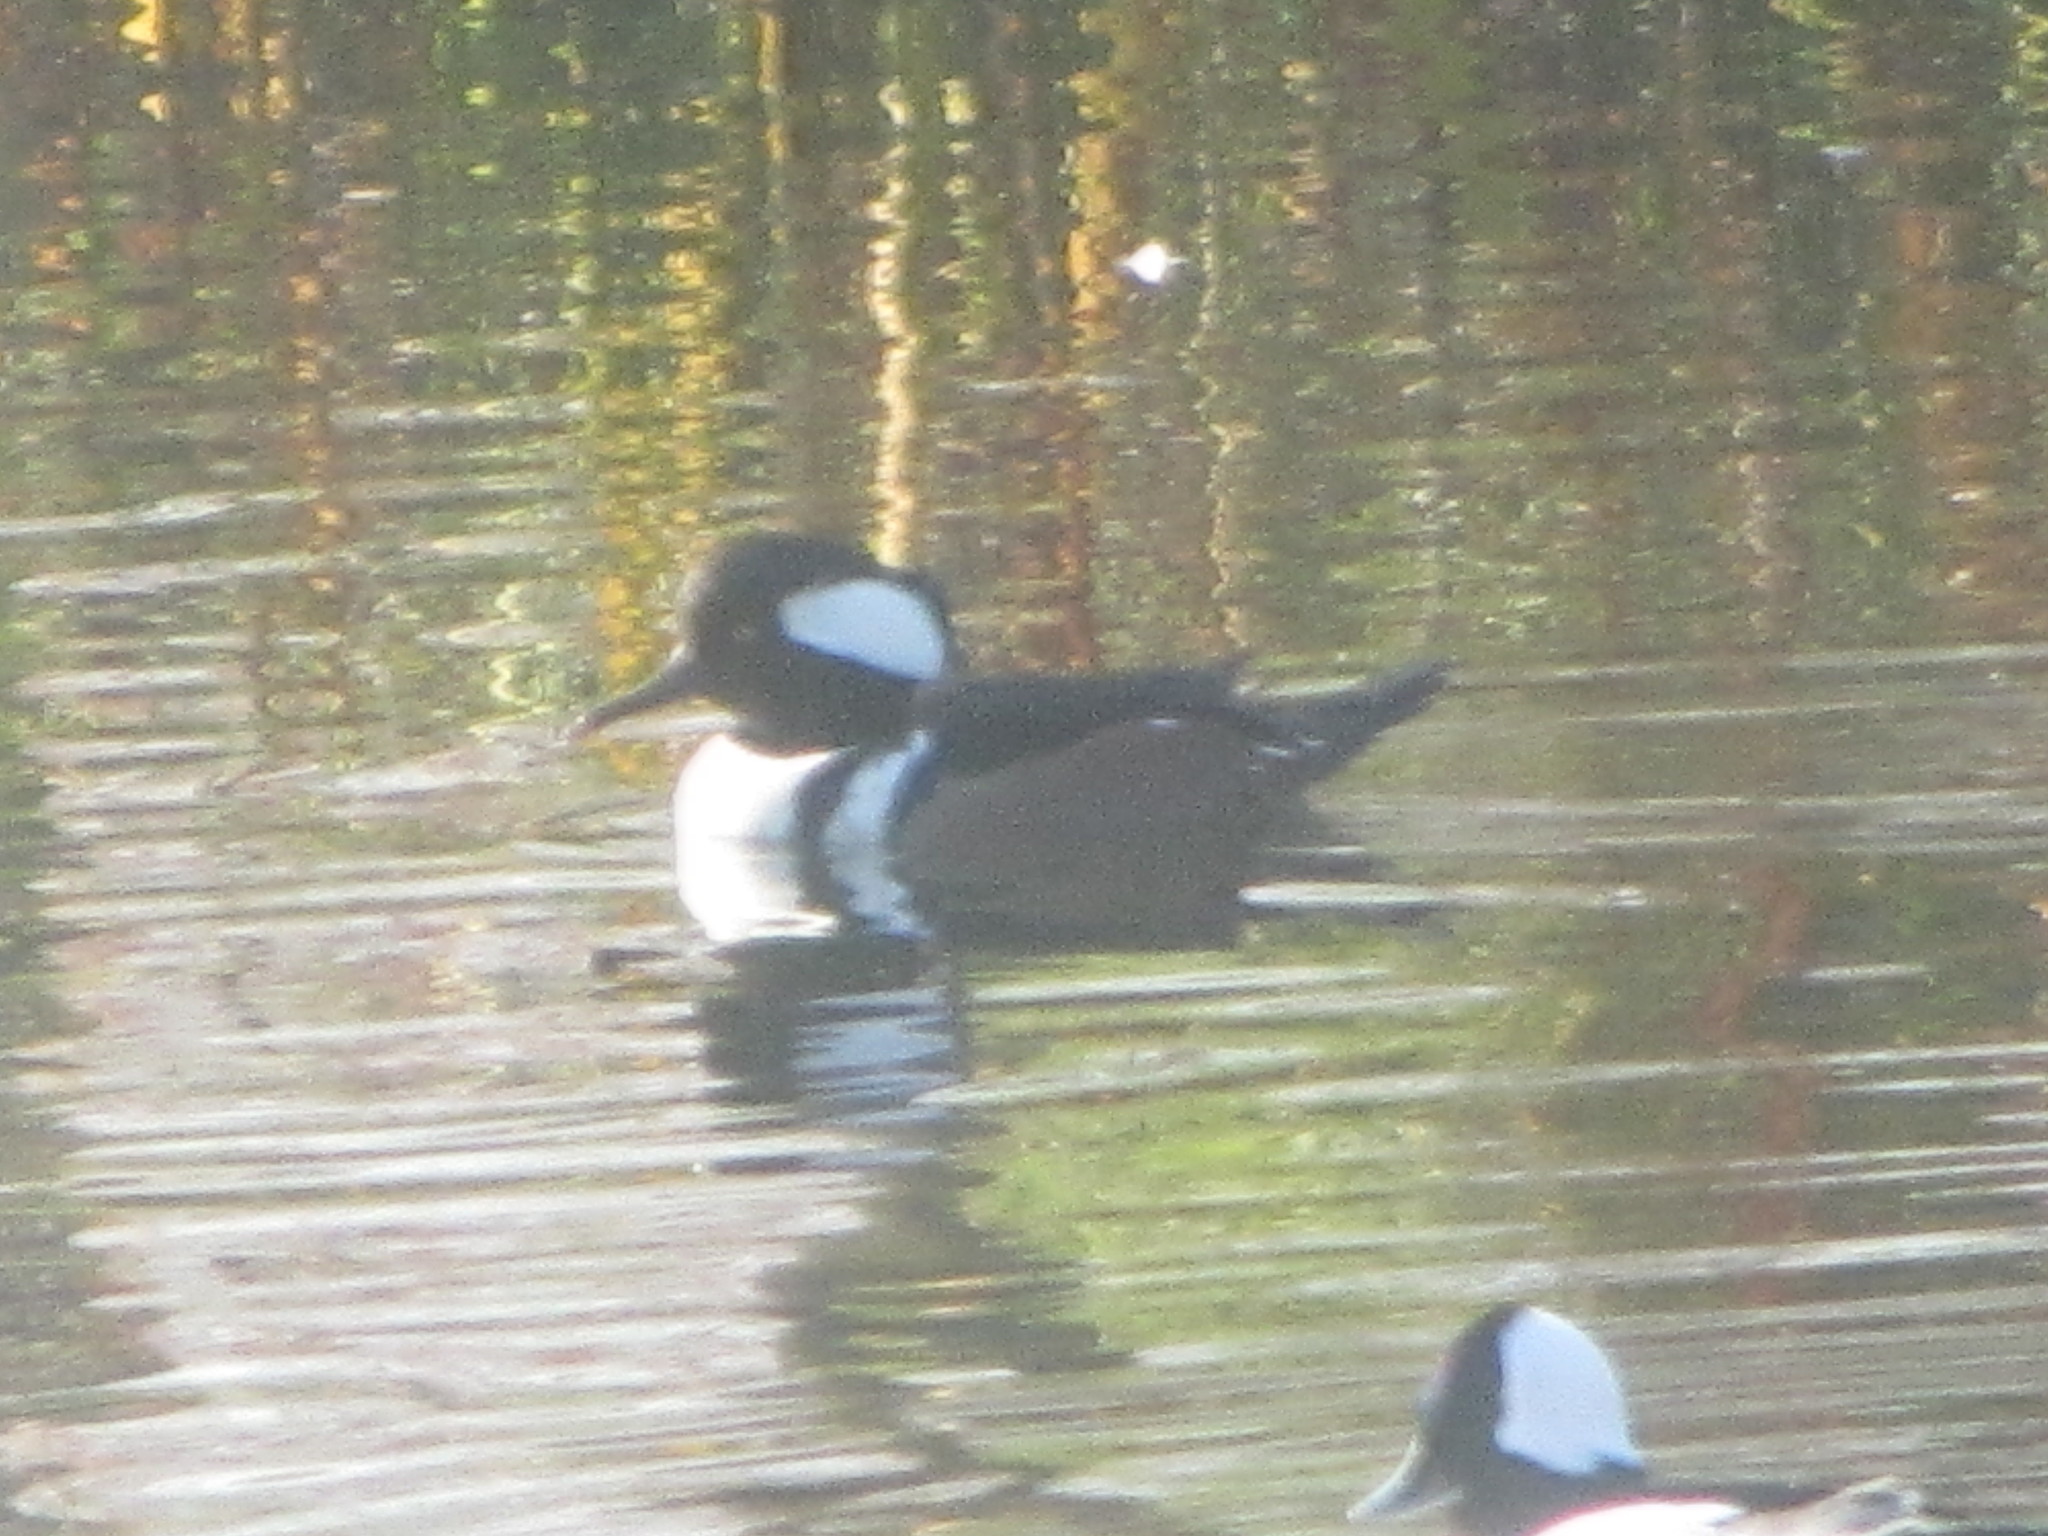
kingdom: Animalia
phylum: Chordata
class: Aves
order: Anseriformes
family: Anatidae
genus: Lophodytes
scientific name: Lophodytes cucullatus
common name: Hooded merganser
